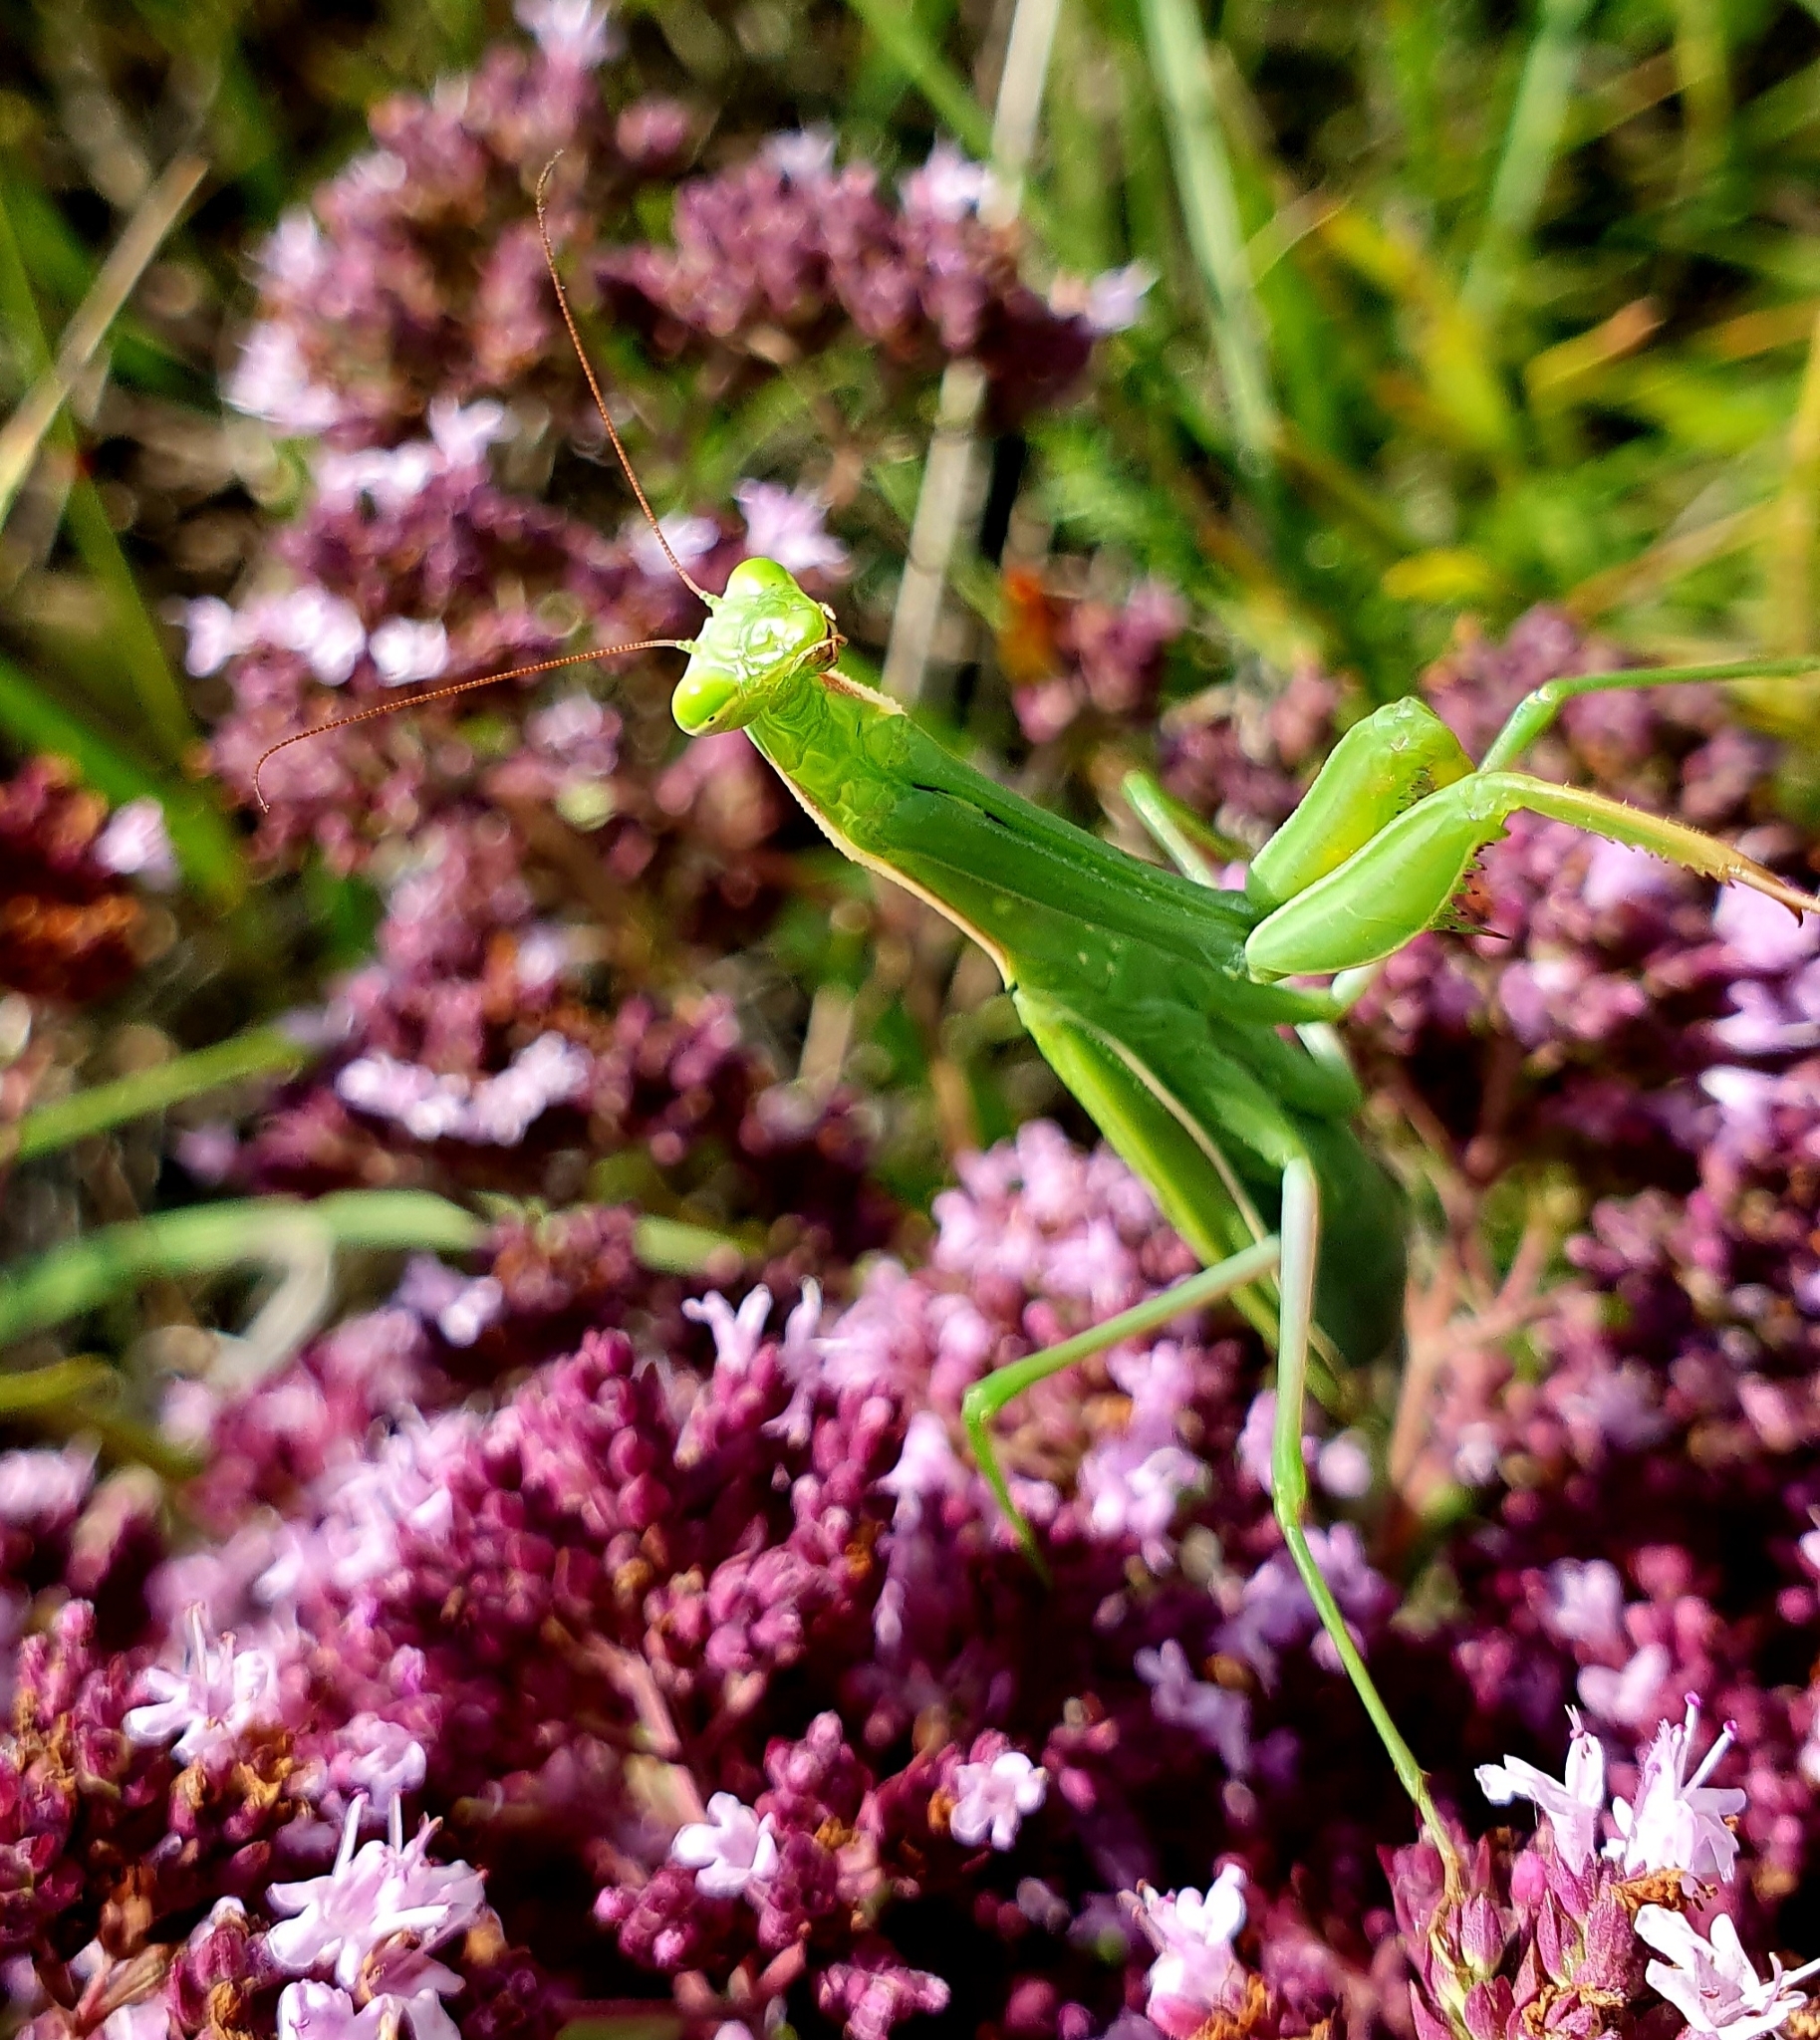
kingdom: Animalia
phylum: Arthropoda
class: Insecta
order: Mantodea
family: Mantidae
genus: Mantis
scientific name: Mantis religiosa
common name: Praying mantis
